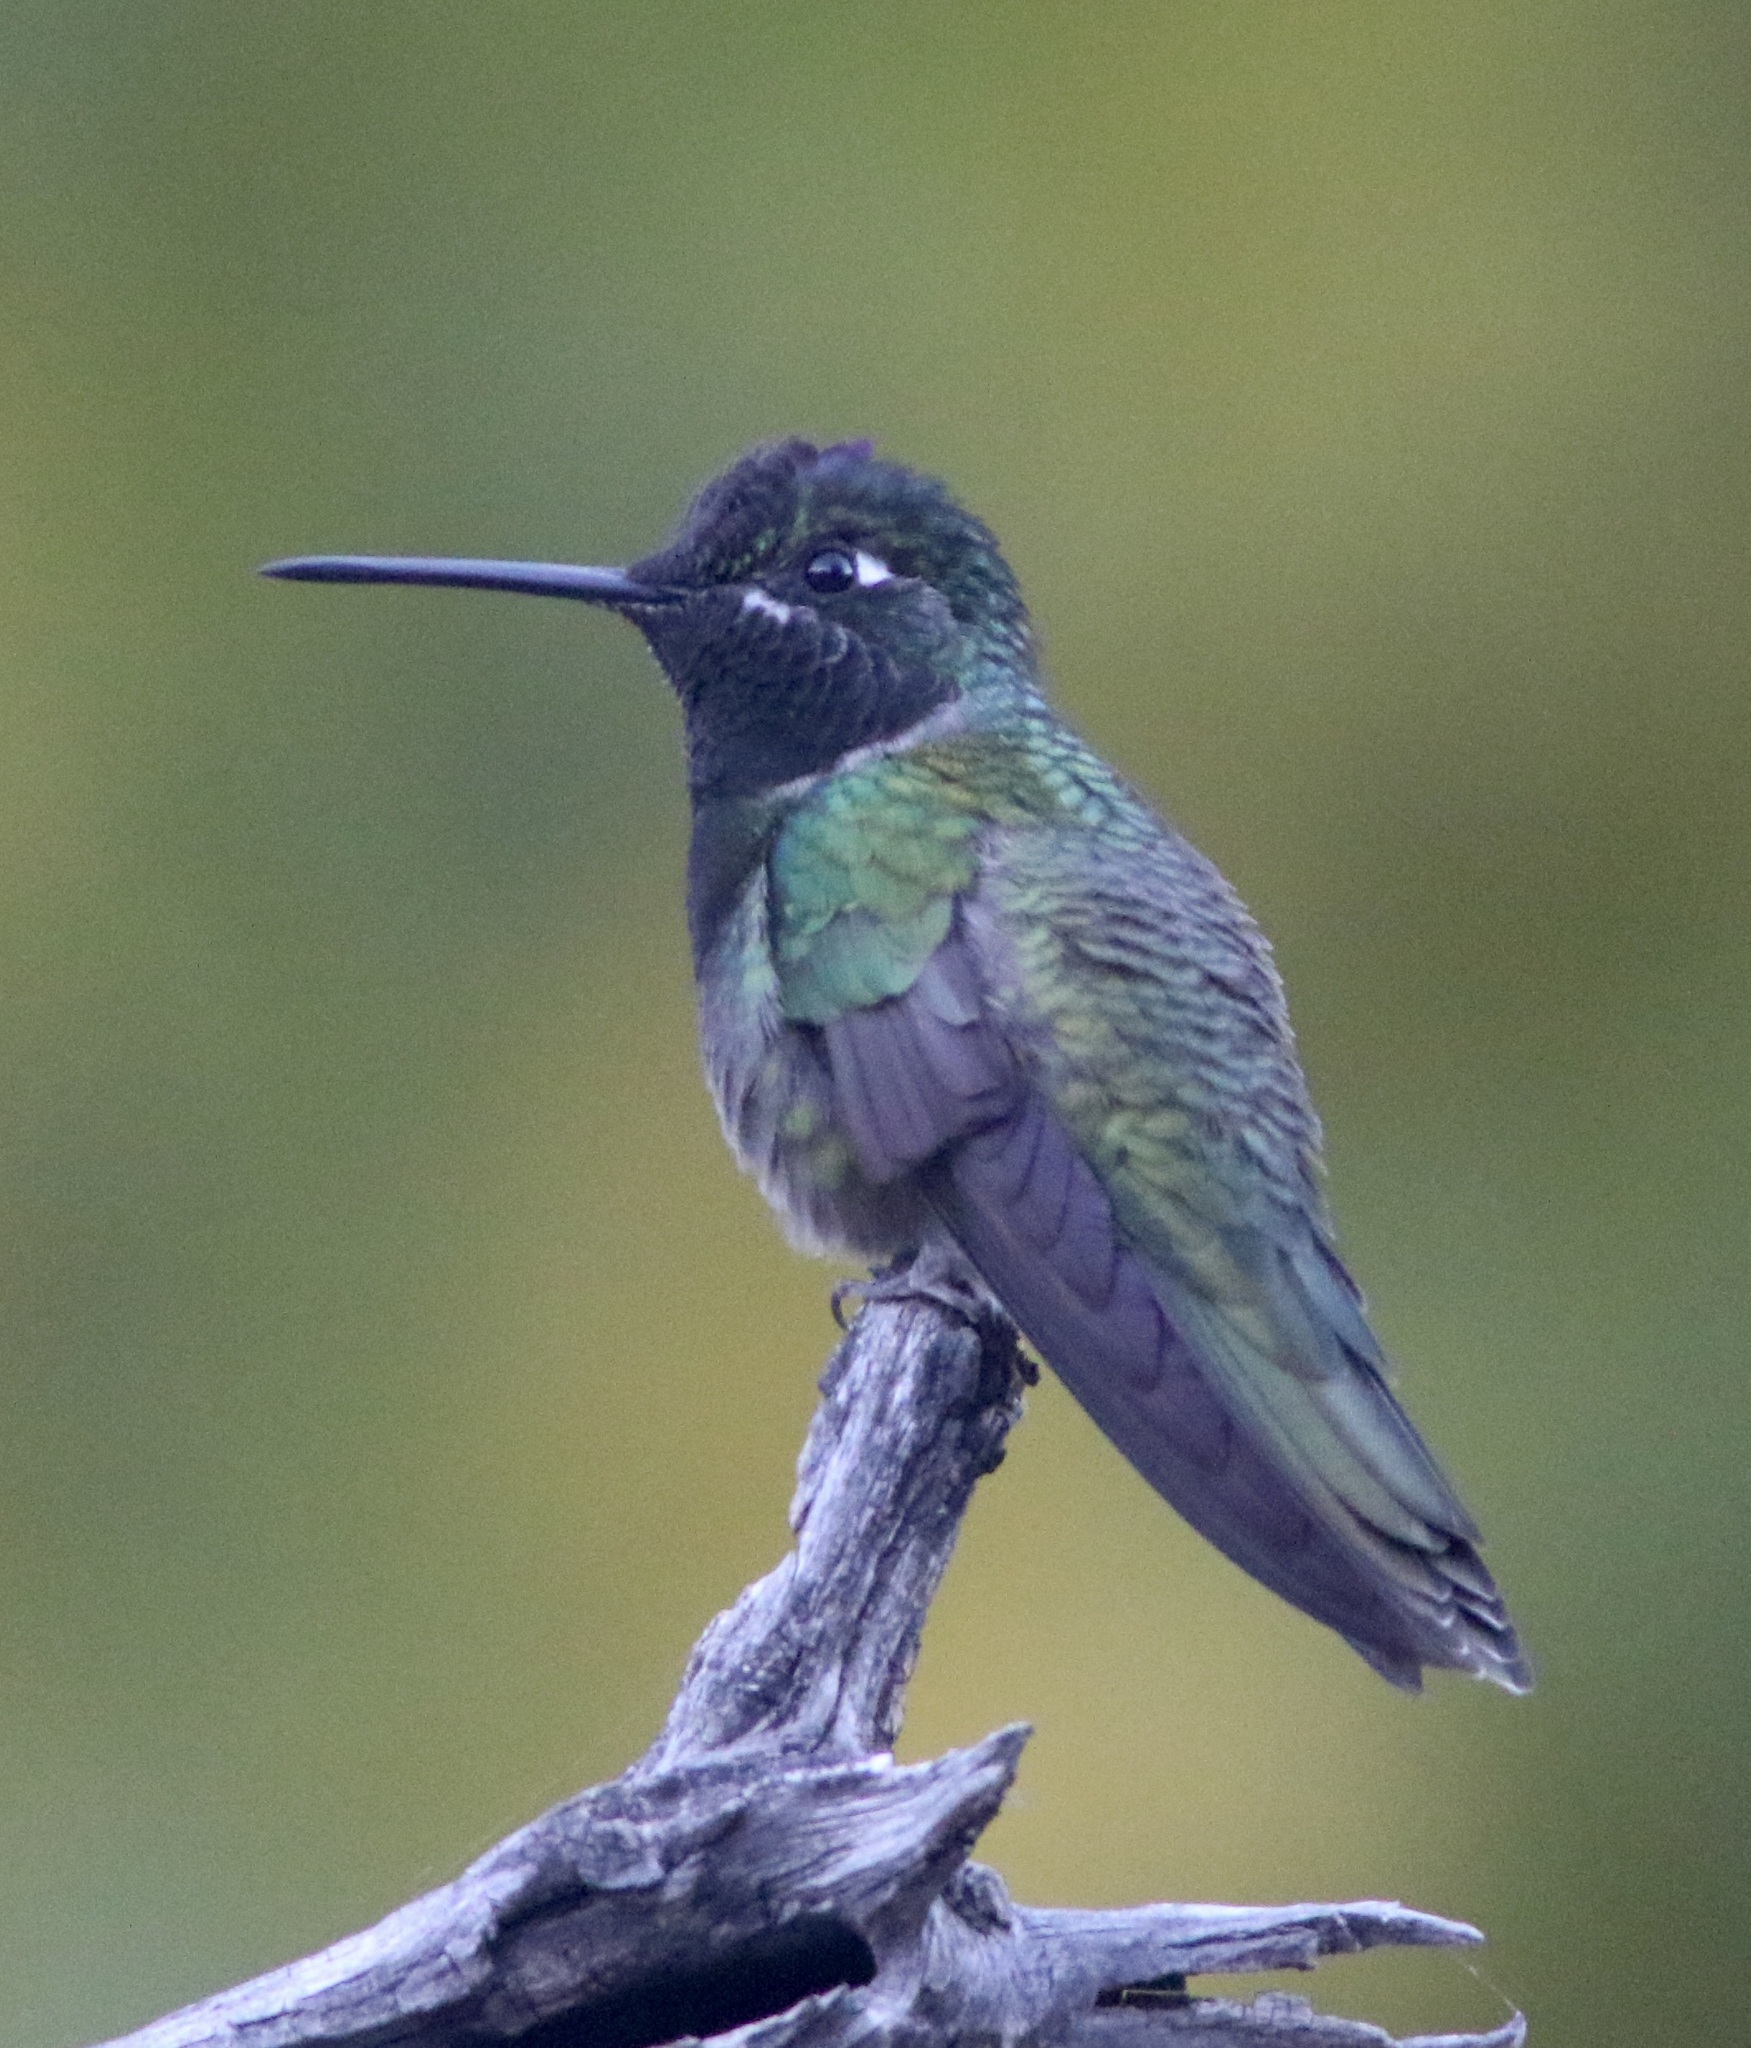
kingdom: Animalia
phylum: Chordata
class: Aves
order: Apodiformes
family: Trochilidae
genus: Eugenes
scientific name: Eugenes fulgens
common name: Magnificent hummingbird
